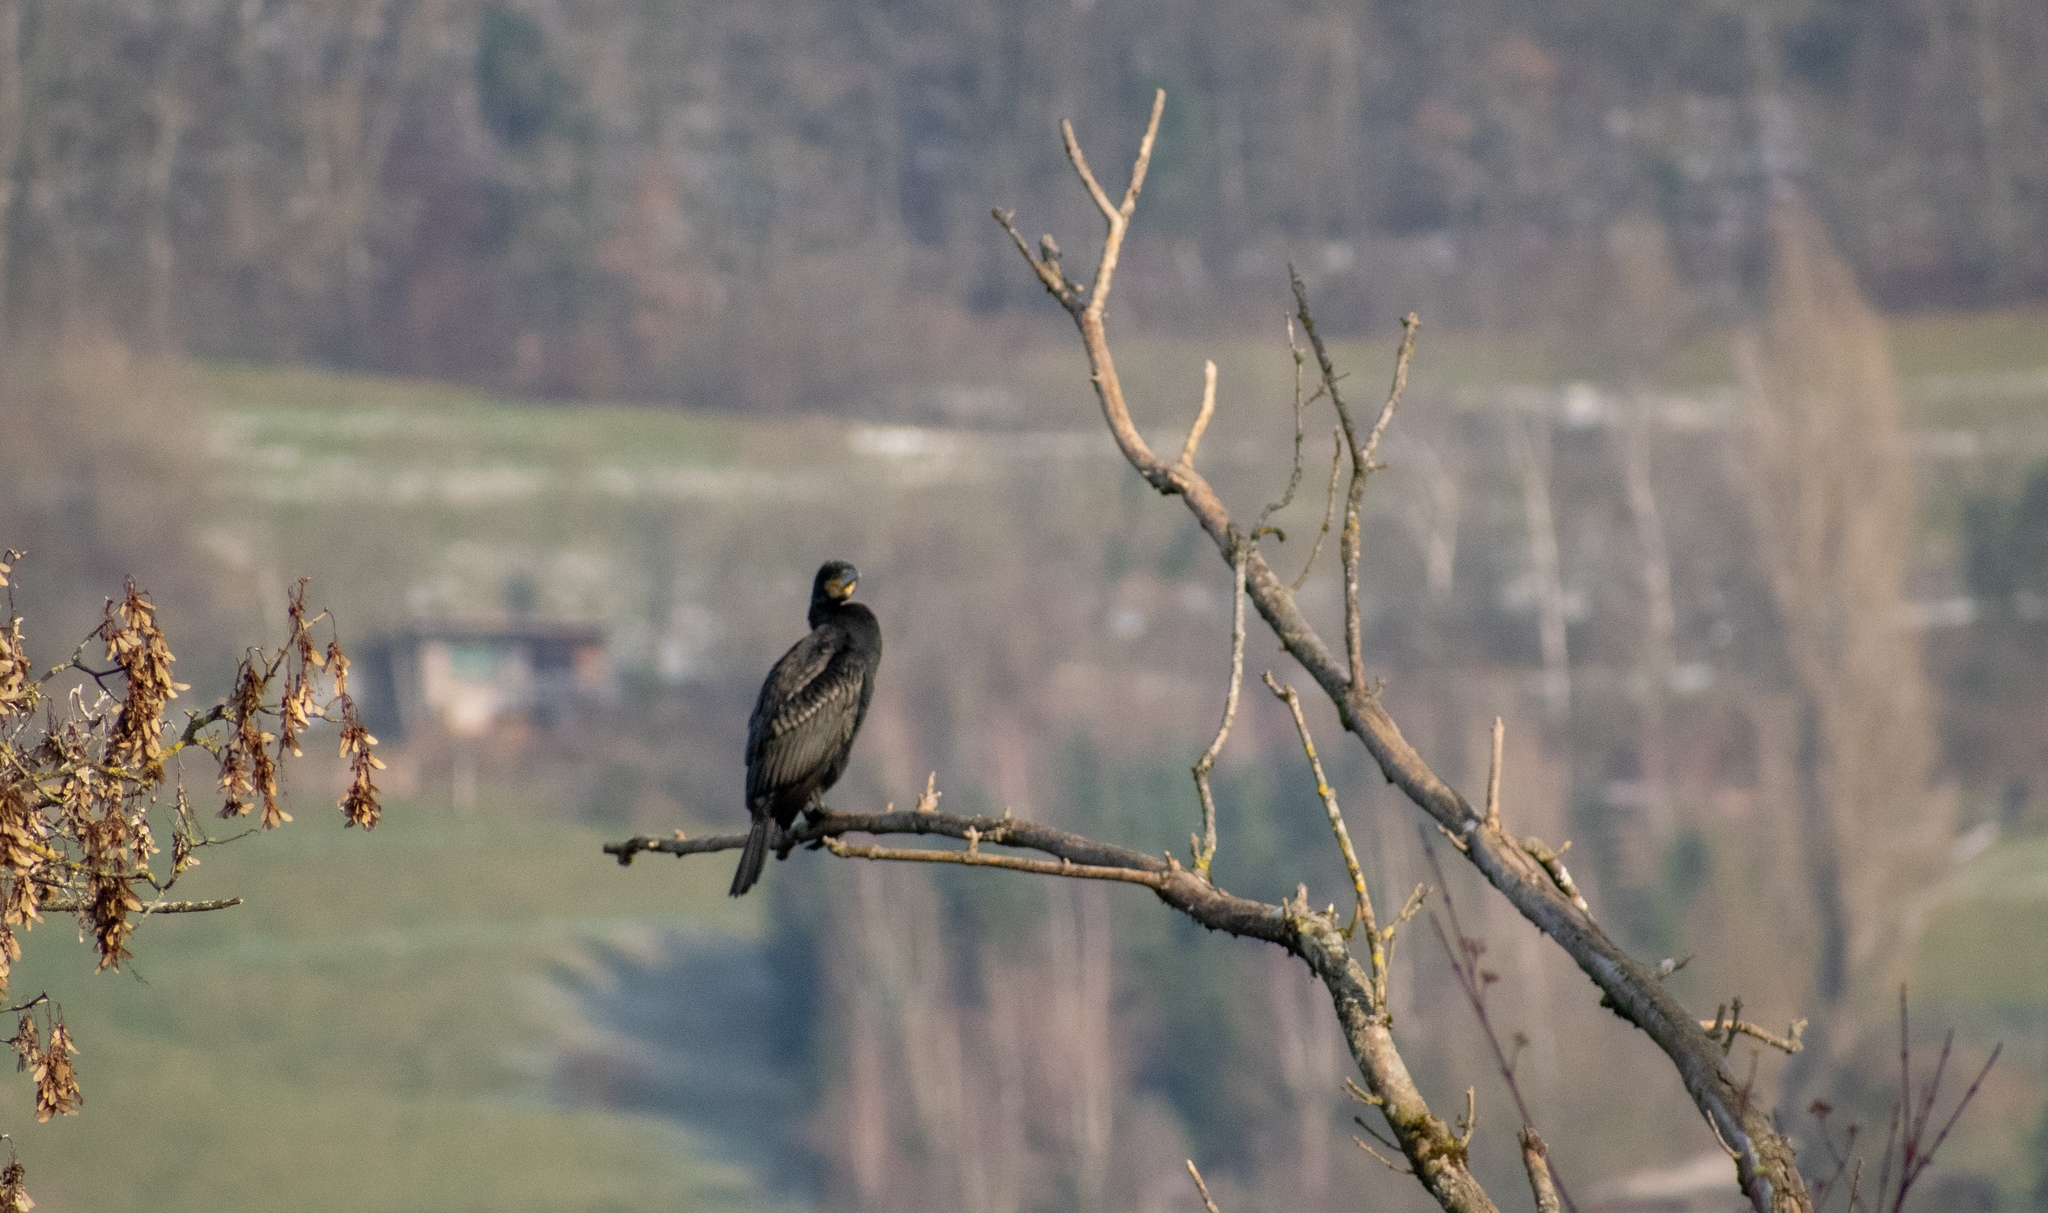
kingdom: Animalia
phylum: Chordata
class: Aves
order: Suliformes
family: Phalacrocoracidae
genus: Phalacrocorax
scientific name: Phalacrocorax carbo
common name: Great cormorant
